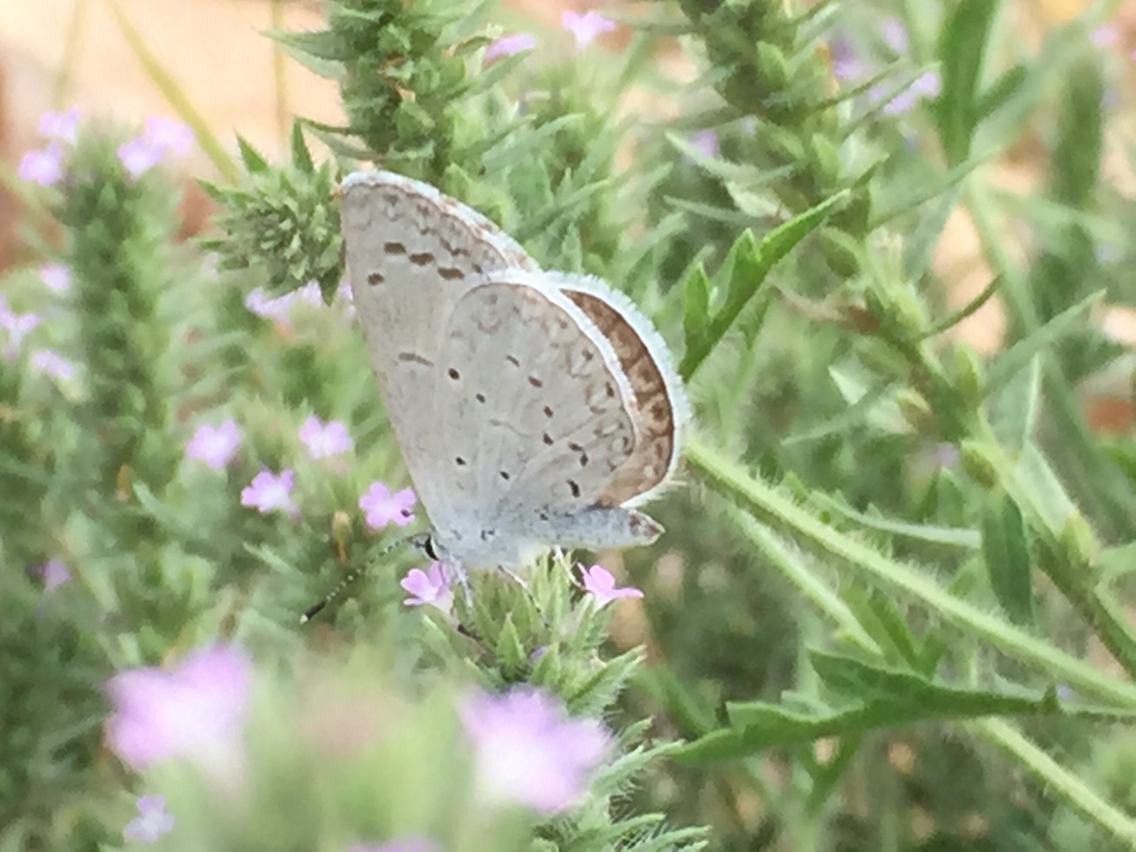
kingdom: Animalia
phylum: Arthropoda
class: Insecta
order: Lepidoptera
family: Lycaenidae
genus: Celastrina
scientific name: Celastrina argiolus
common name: Holly blue
